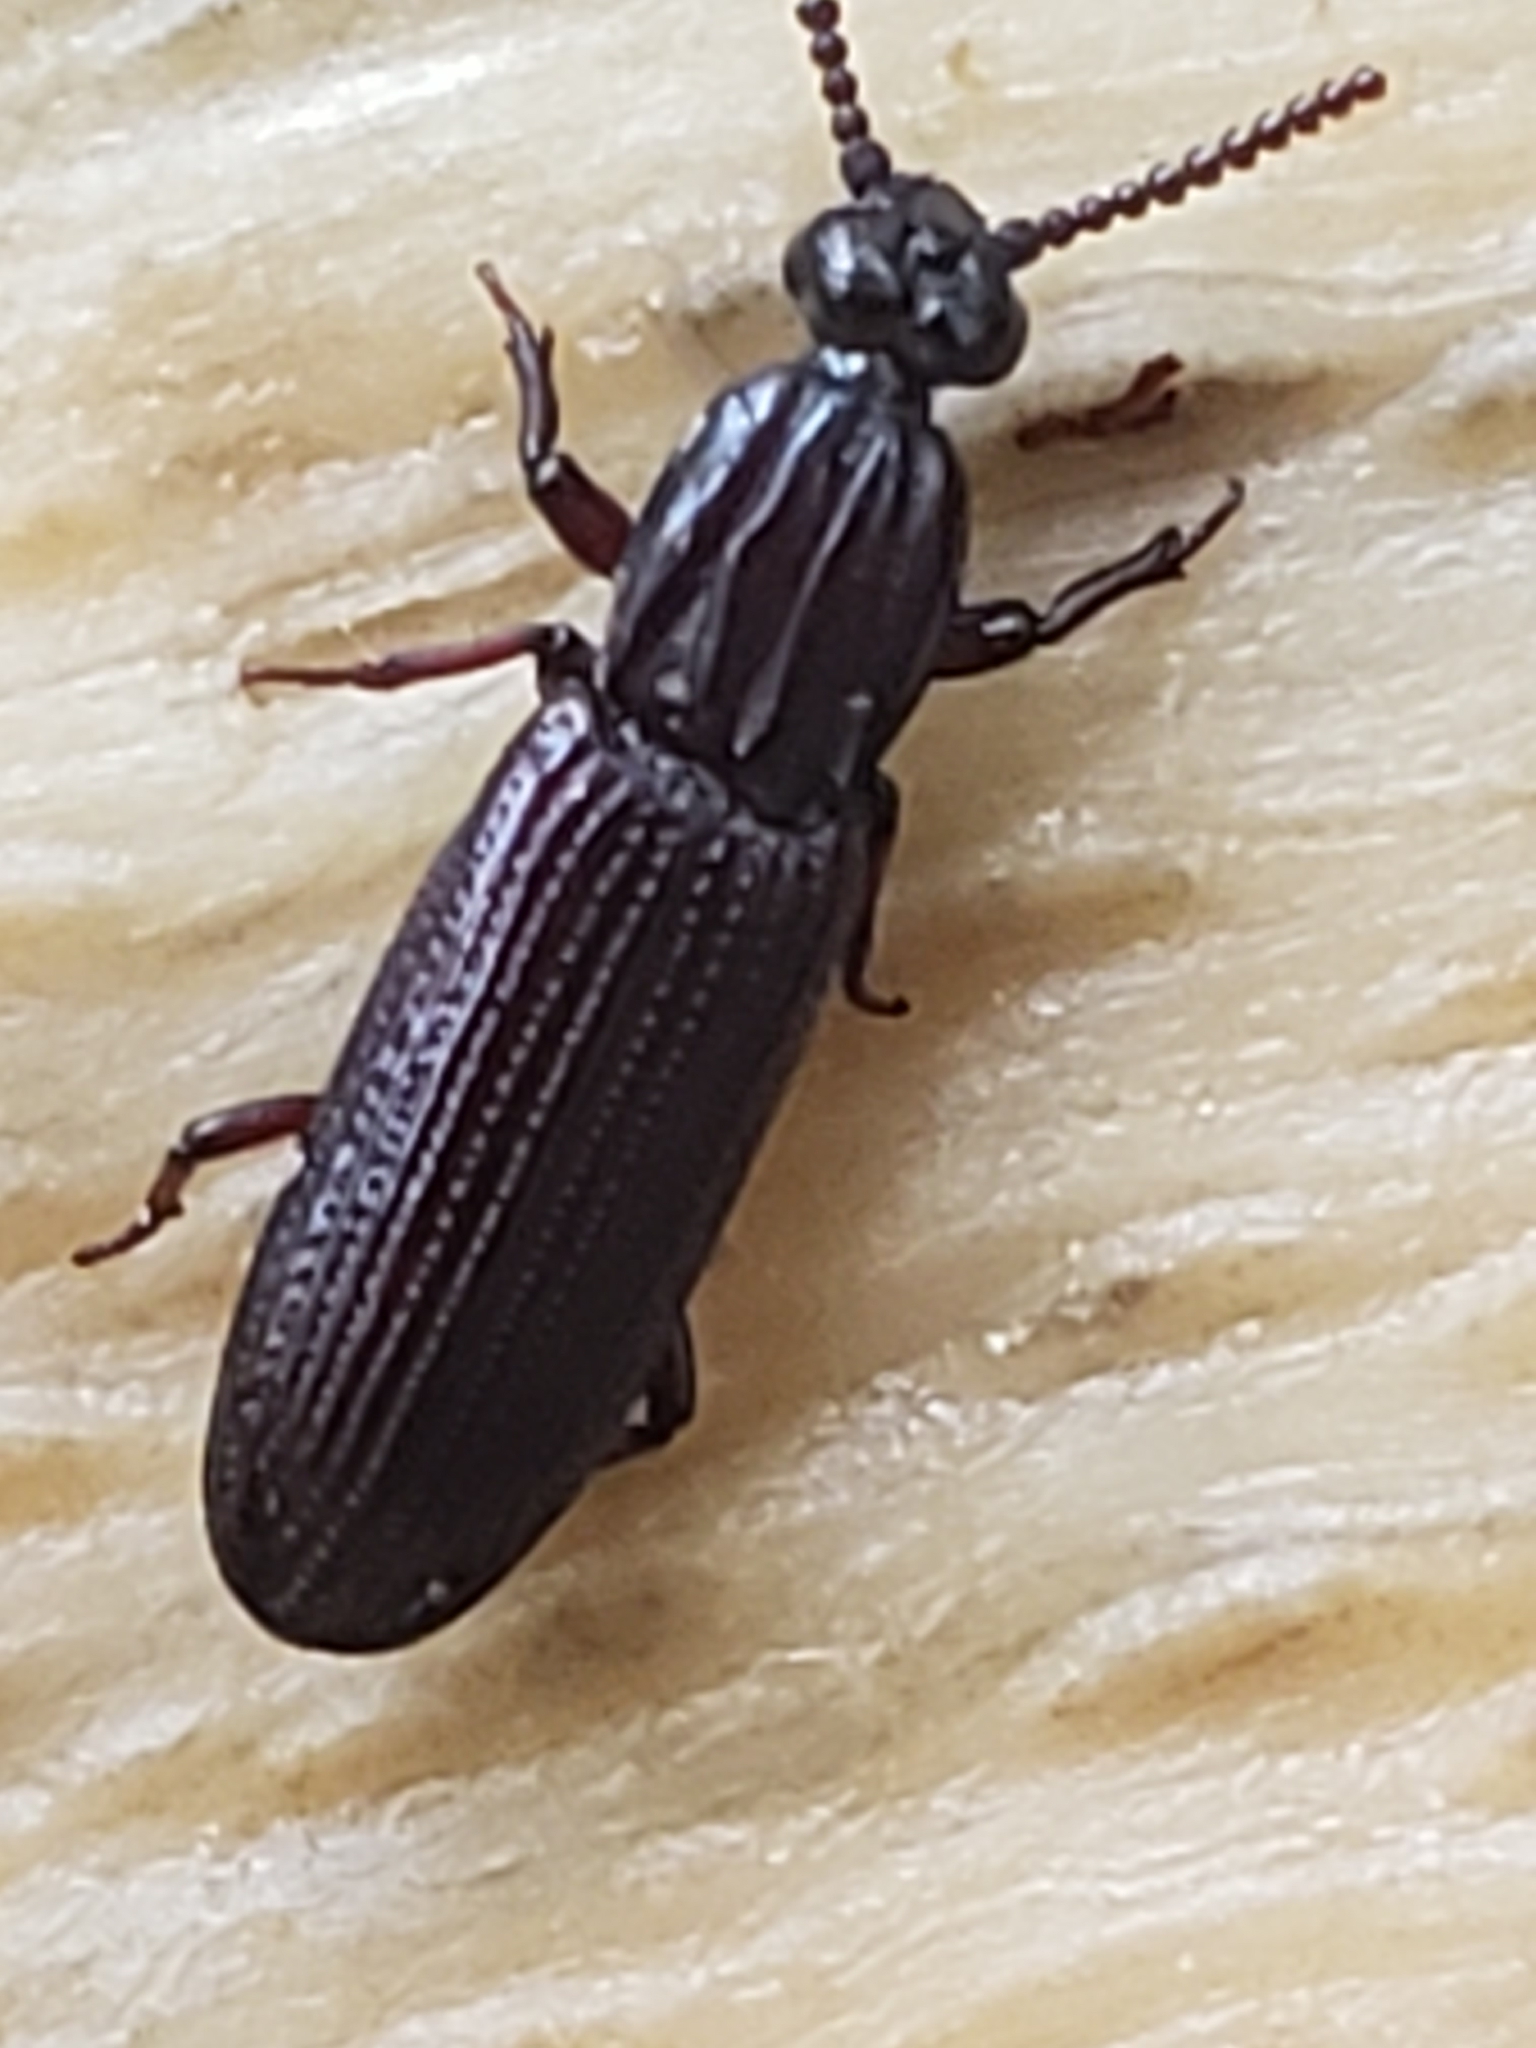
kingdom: Animalia
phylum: Arthropoda
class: Insecta
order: Coleoptera
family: Carabidae
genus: Omoglymmius
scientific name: Omoglymmius americanus
